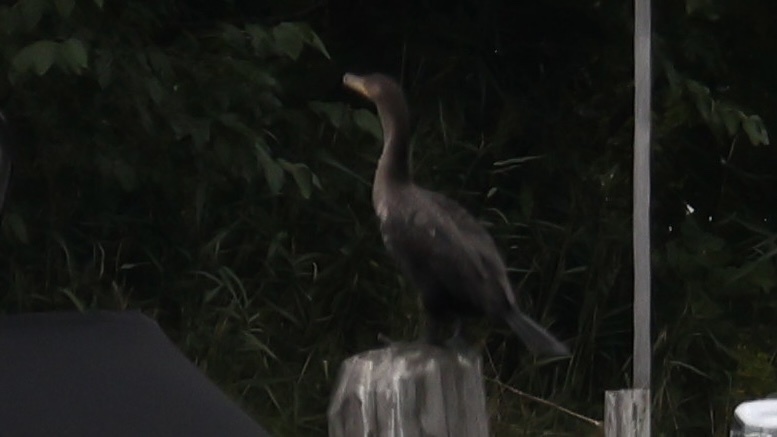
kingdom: Animalia
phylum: Chordata
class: Aves
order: Suliformes
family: Phalacrocoracidae
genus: Phalacrocorax
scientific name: Phalacrocorax auritus
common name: Double-crested cormorant
